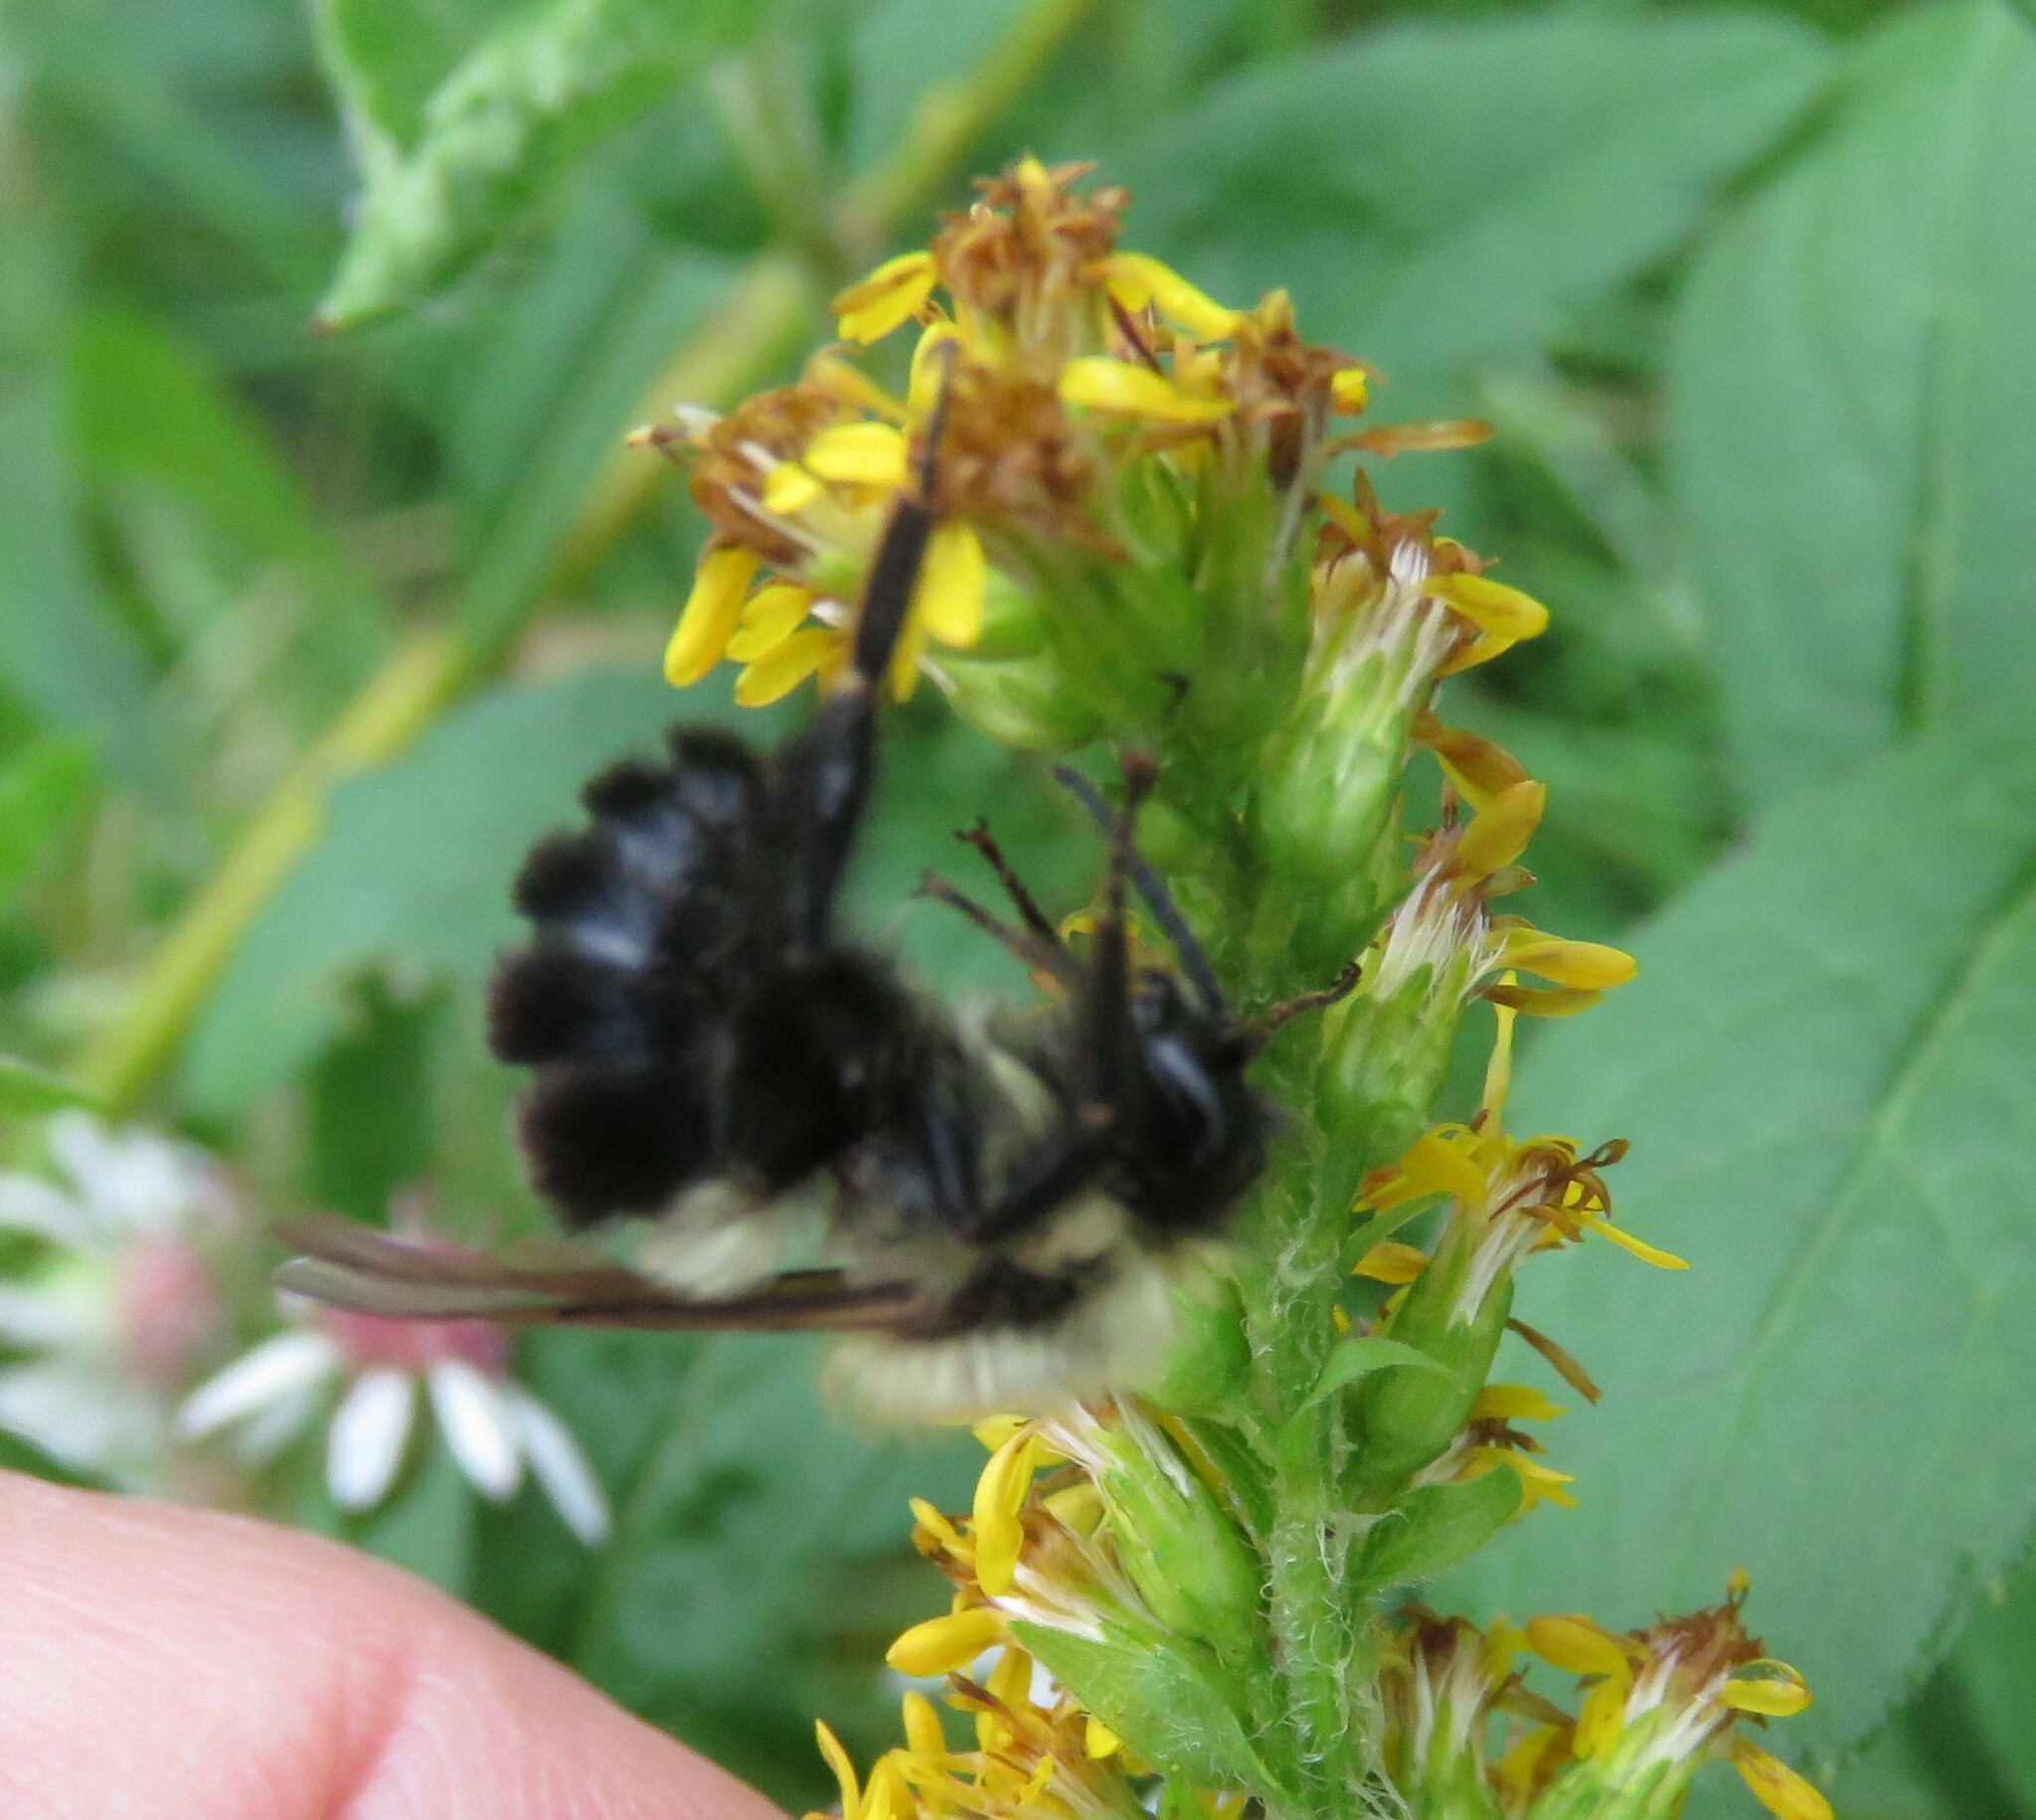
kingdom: Animalia
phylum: Arthropoda
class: Insecta
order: Hymenoptera
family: Apidae
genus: Bombus
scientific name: Bombus impatiens
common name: Common eastern bumble bee
